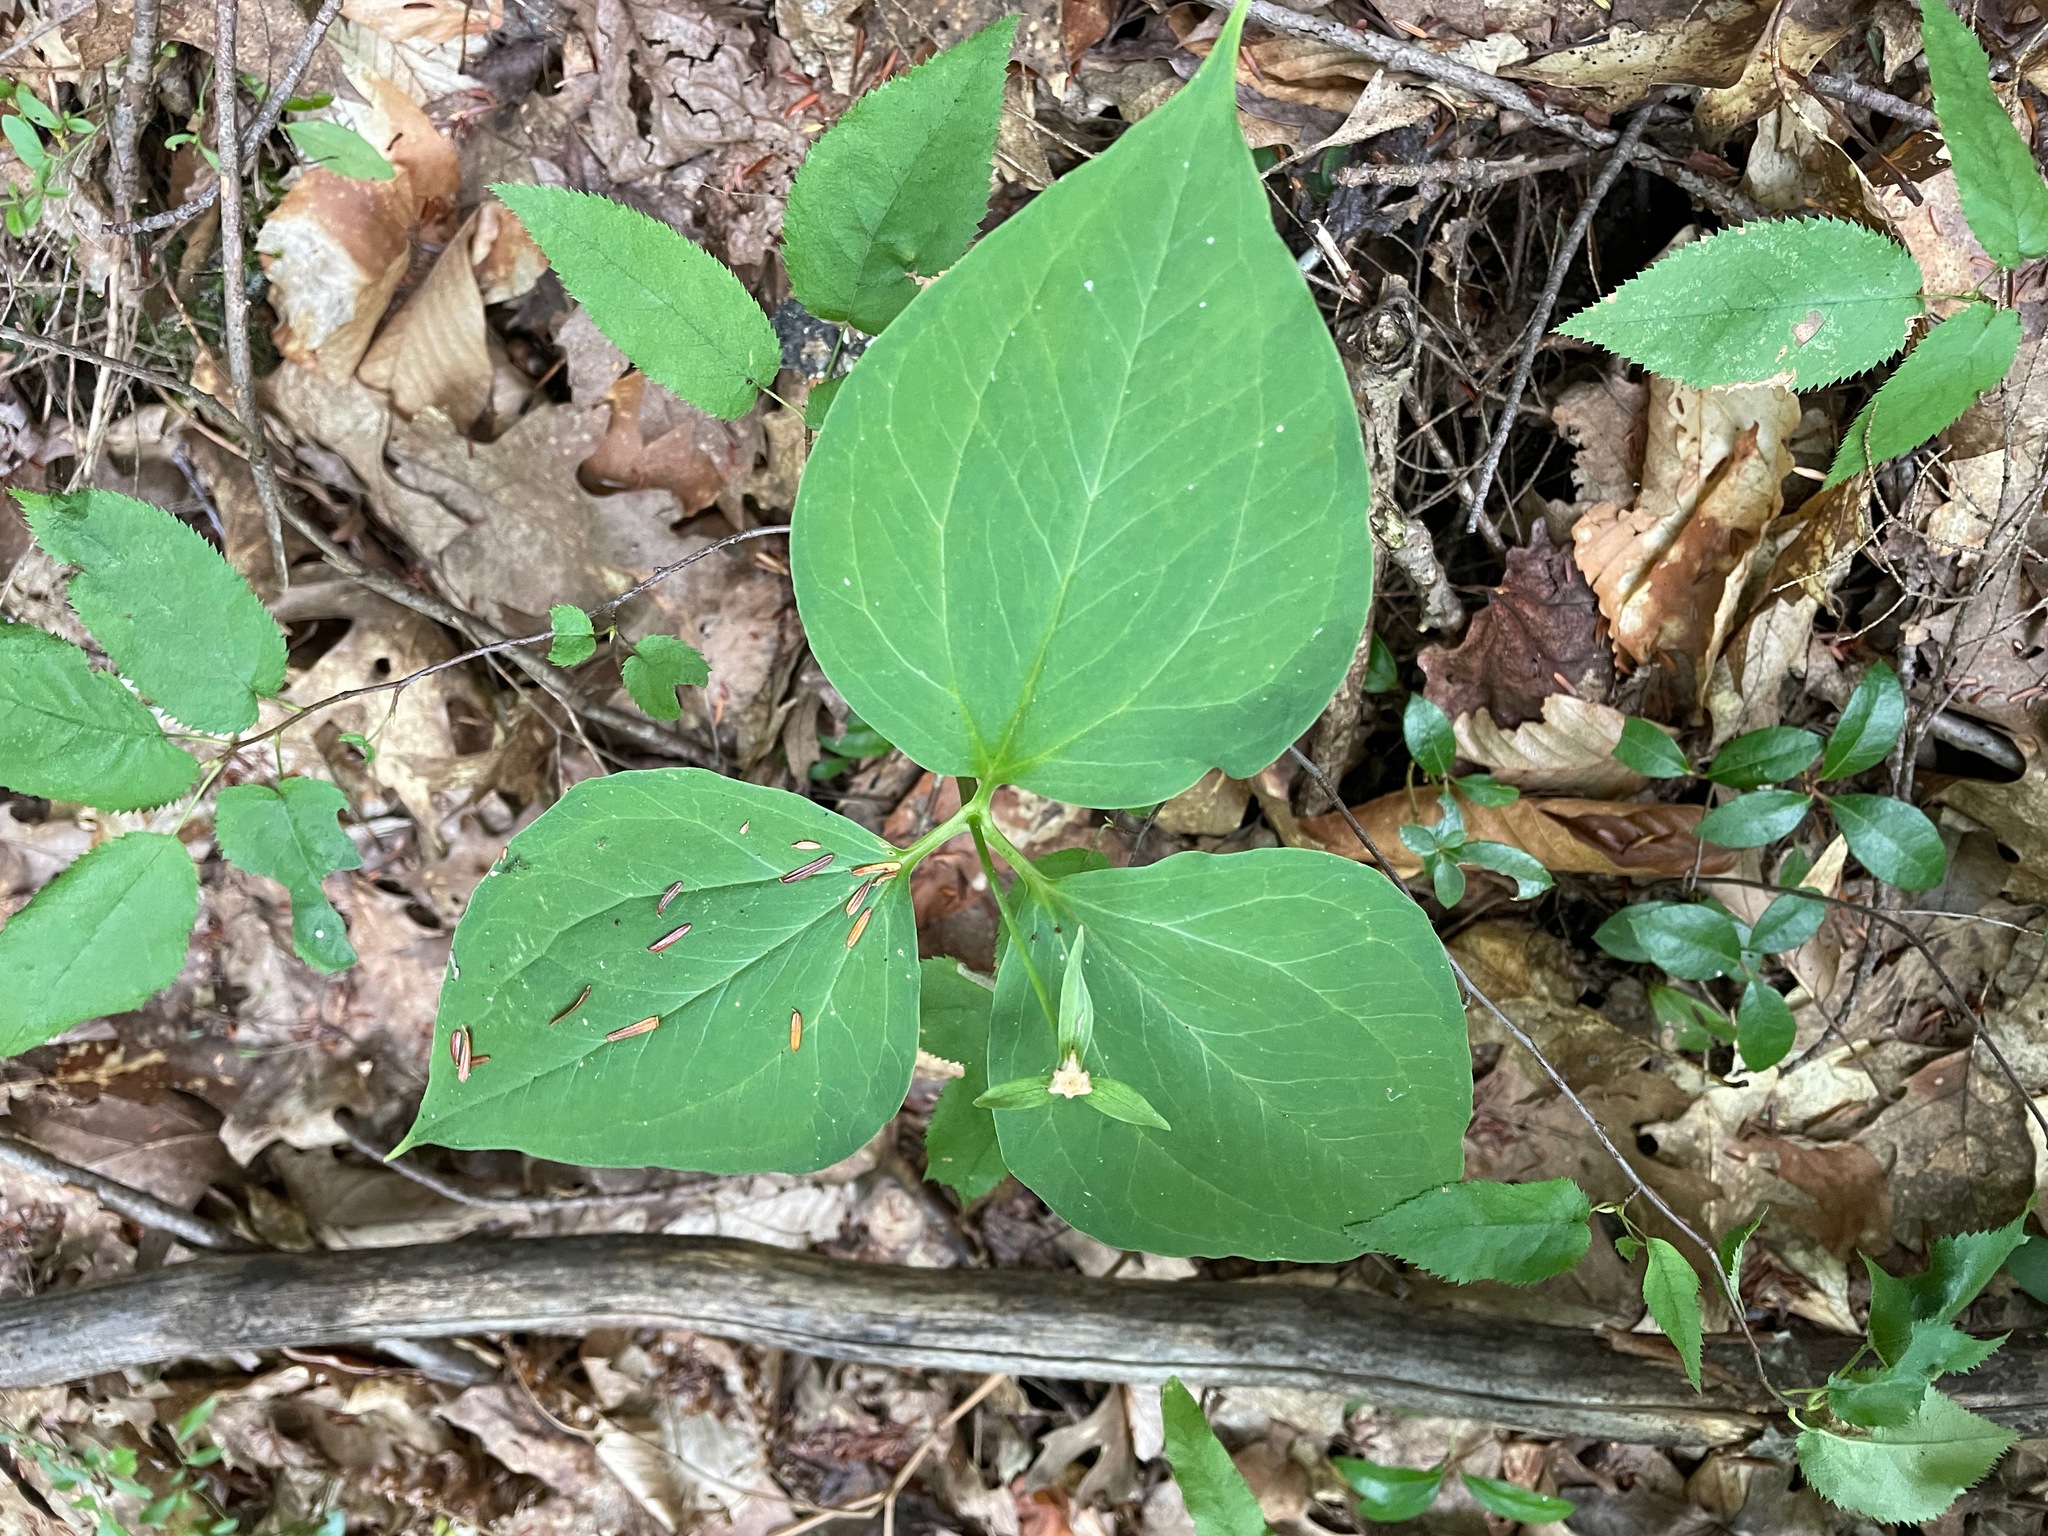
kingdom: Plantae
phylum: Tracheophyta
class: Liliopsida
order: Liliales
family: Melanthiaceae
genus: Trillium
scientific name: Trillium undulatum
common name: Paint trillium
